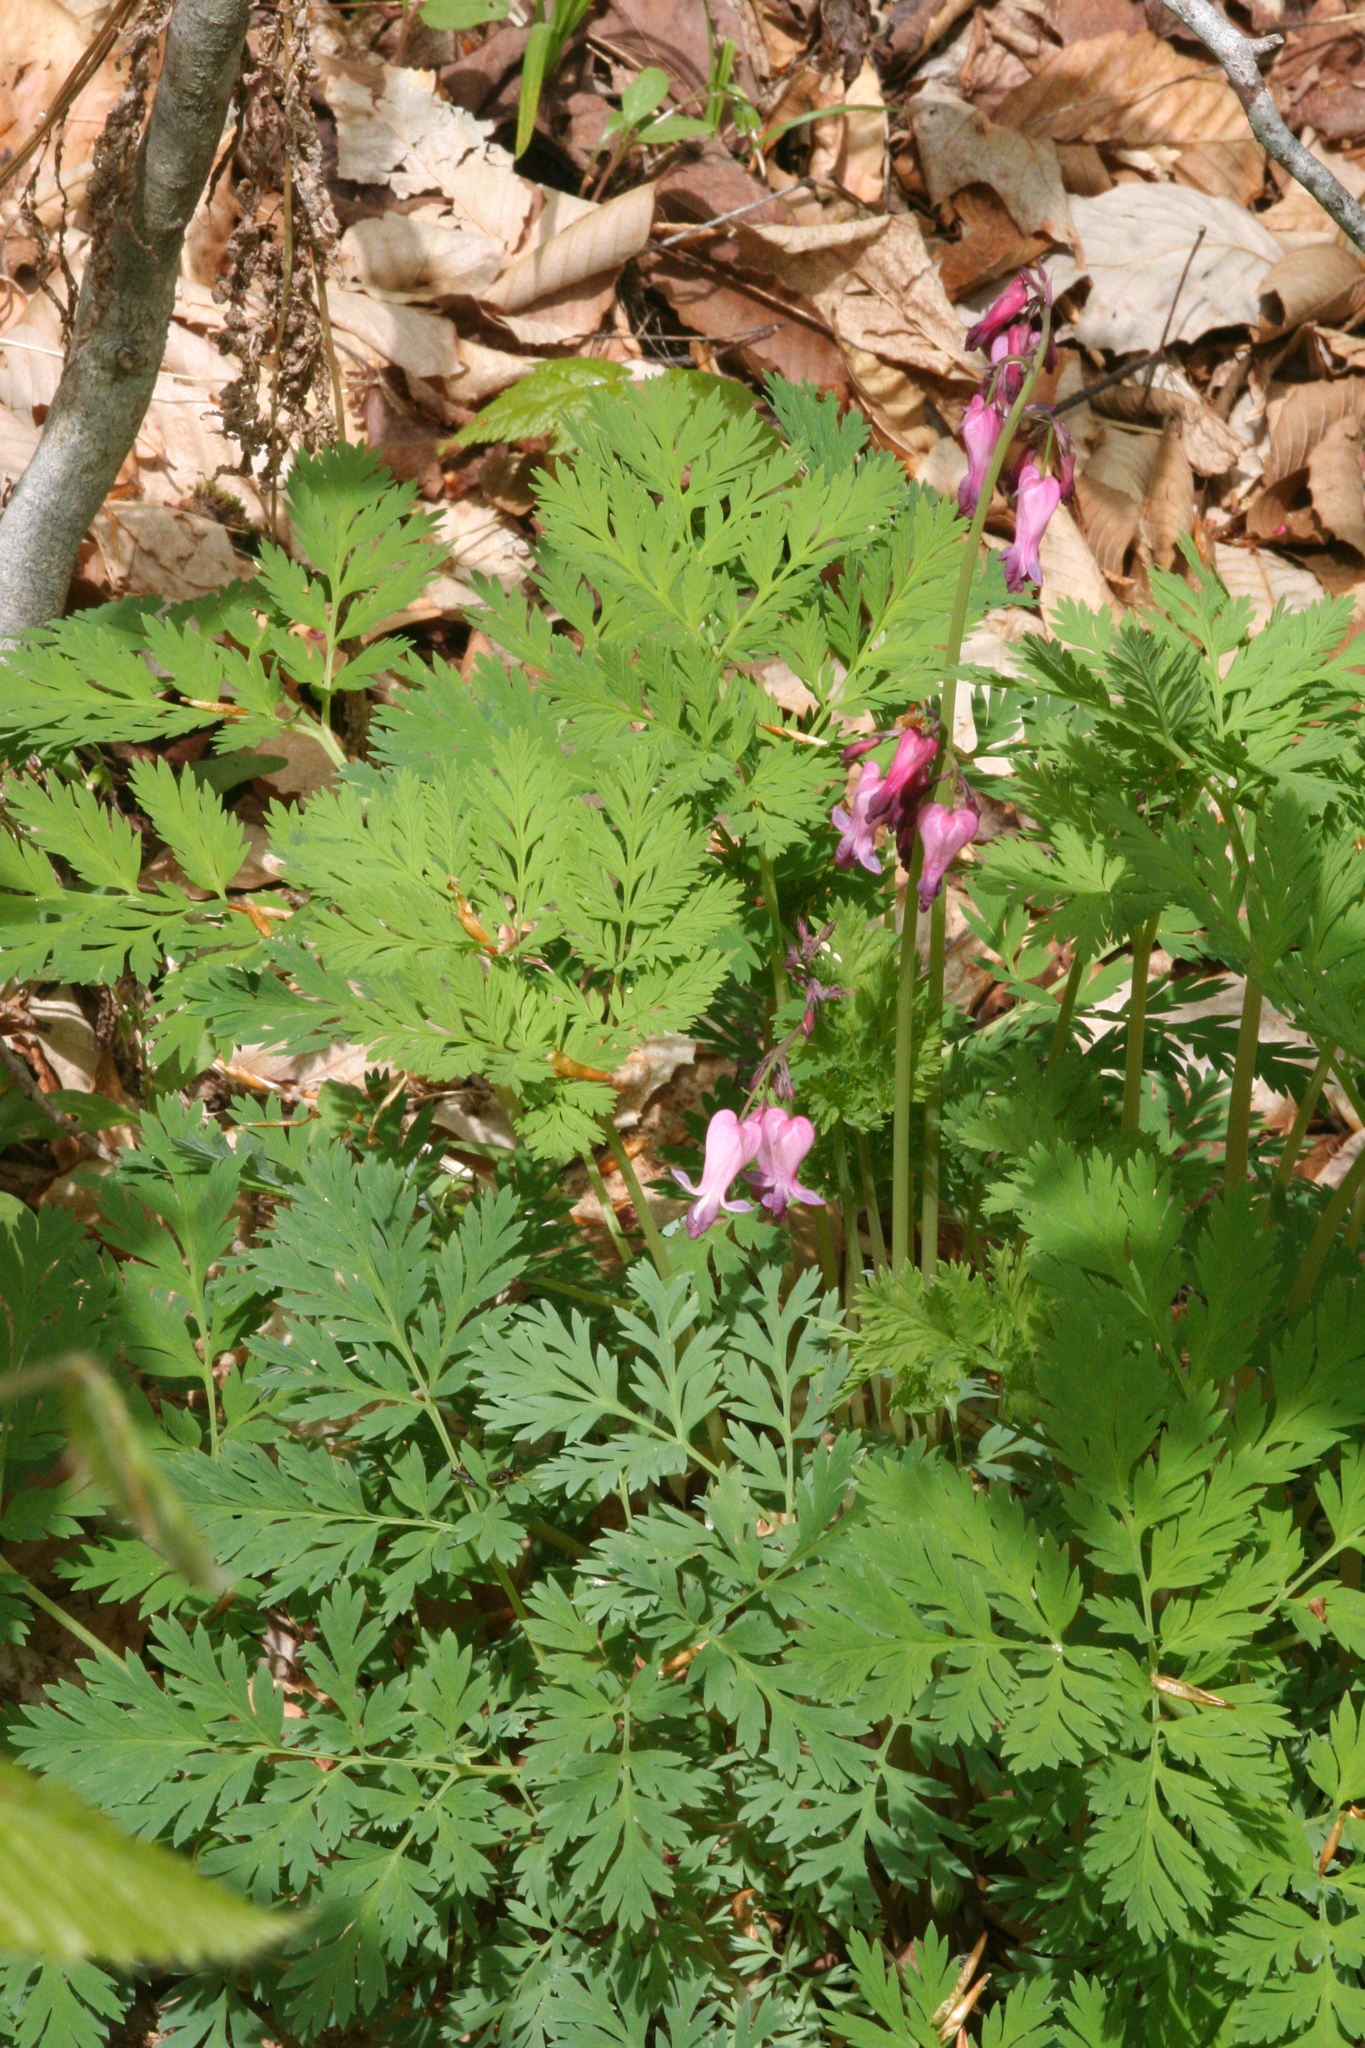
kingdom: Plantae
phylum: Tracheophyta
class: Magnoliopsida
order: Ranunculales
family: Papaveraceae
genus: Dicentra
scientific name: Dicentra eximia
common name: Turkey-corn
